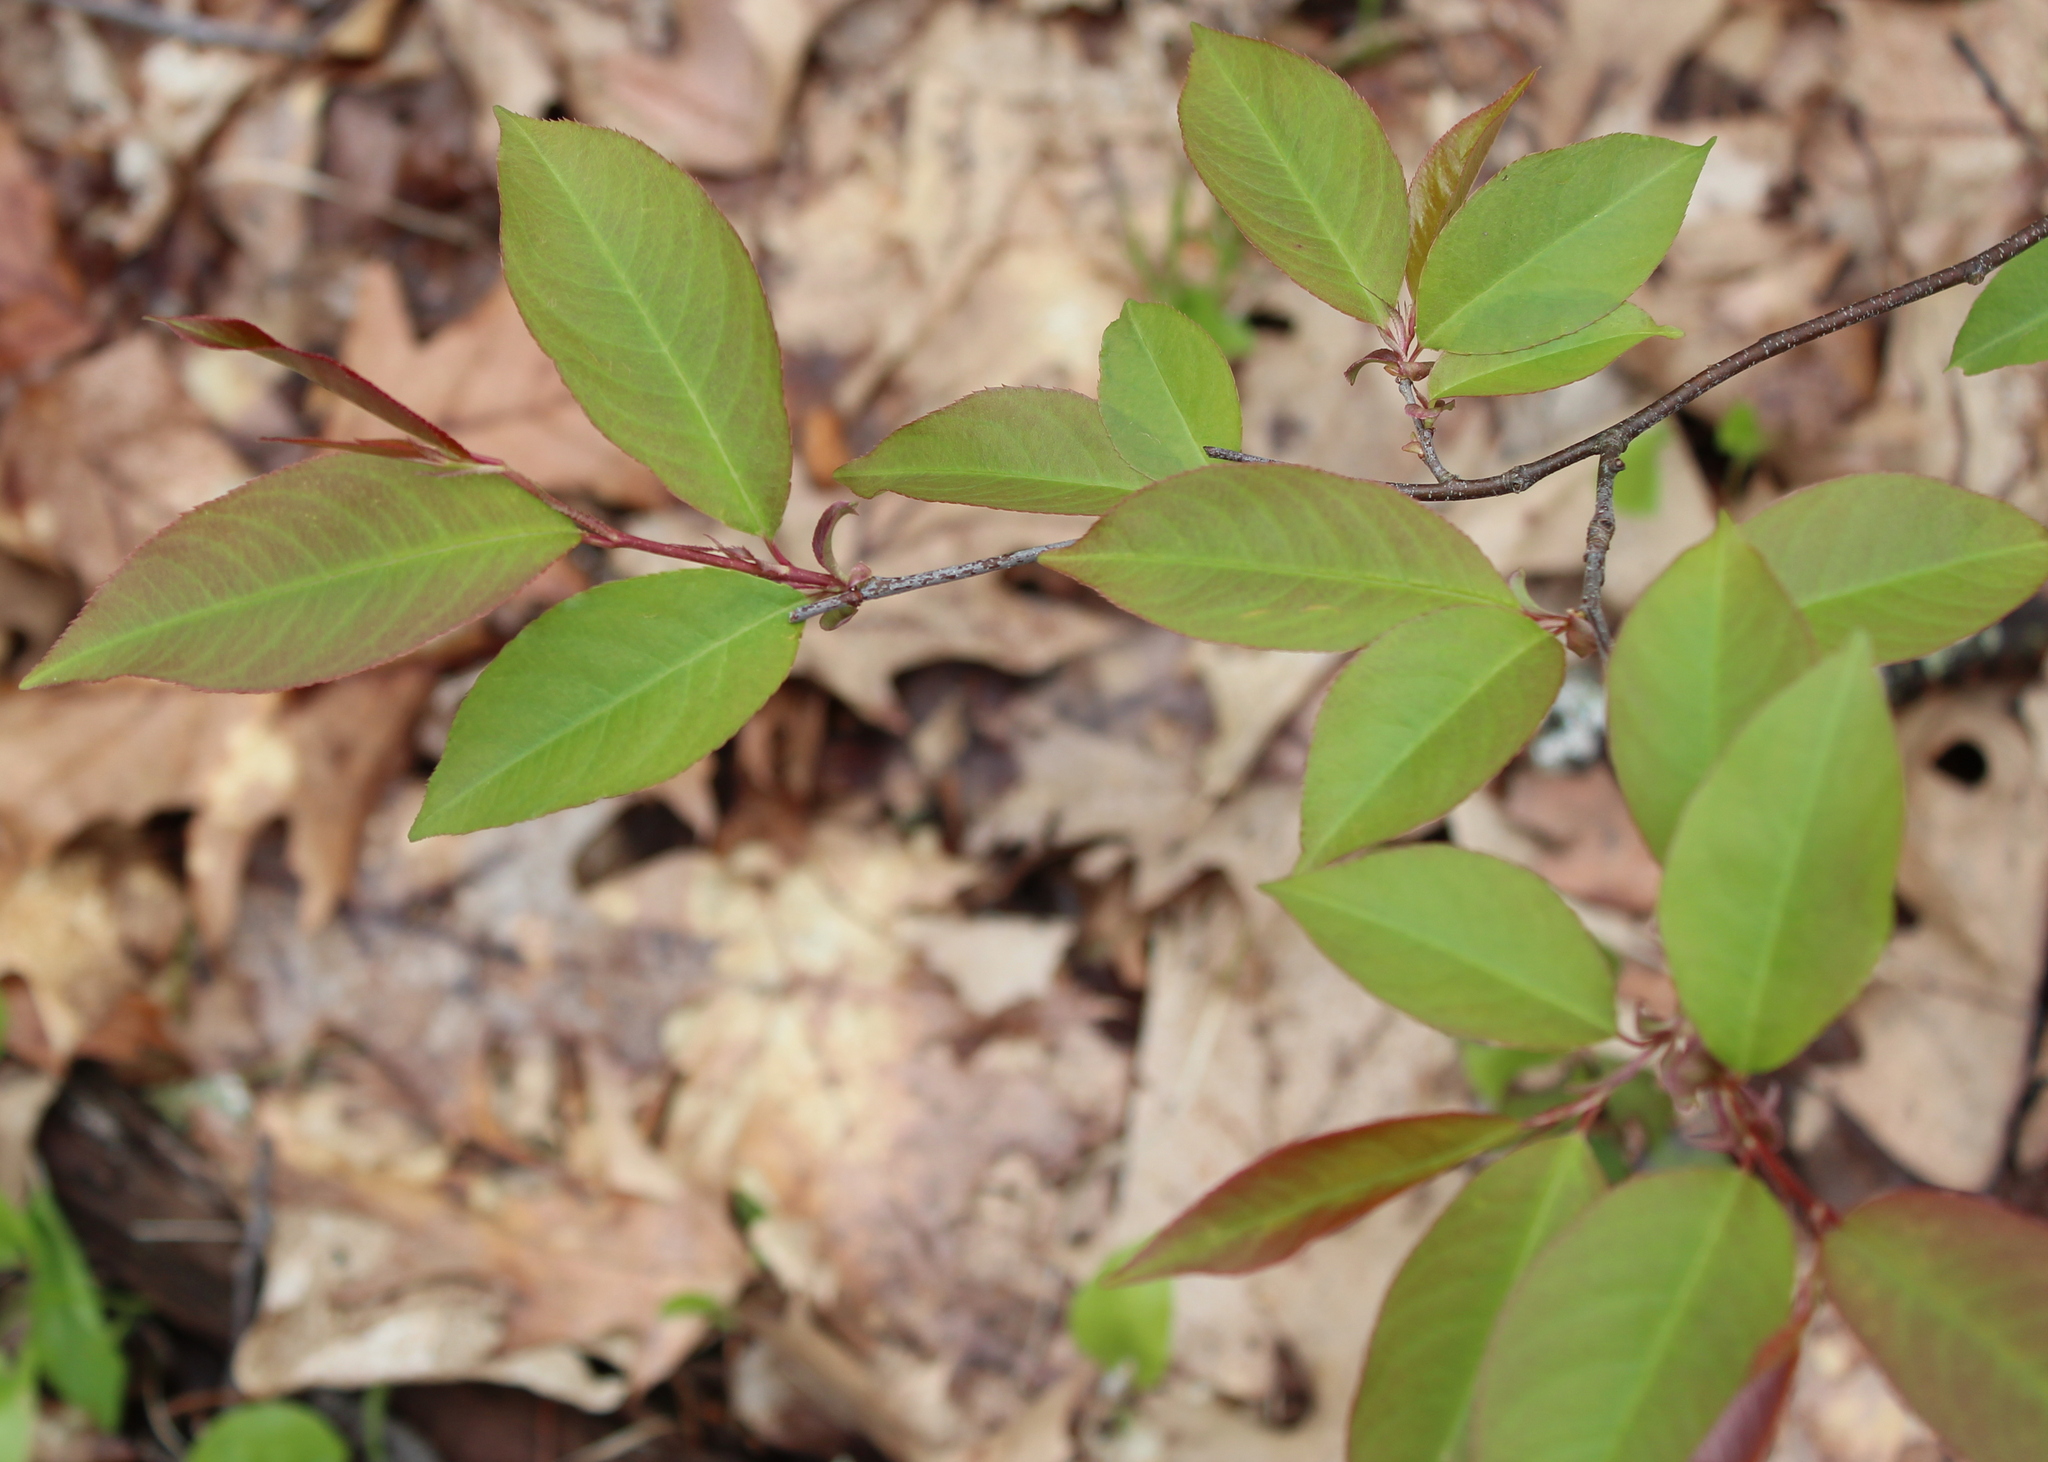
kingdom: Plantae
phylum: Tracheophyta
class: Magnoliopsida
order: Rosales
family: Rosaceae
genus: Prunus
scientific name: Prunus serotina
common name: Black cherry
